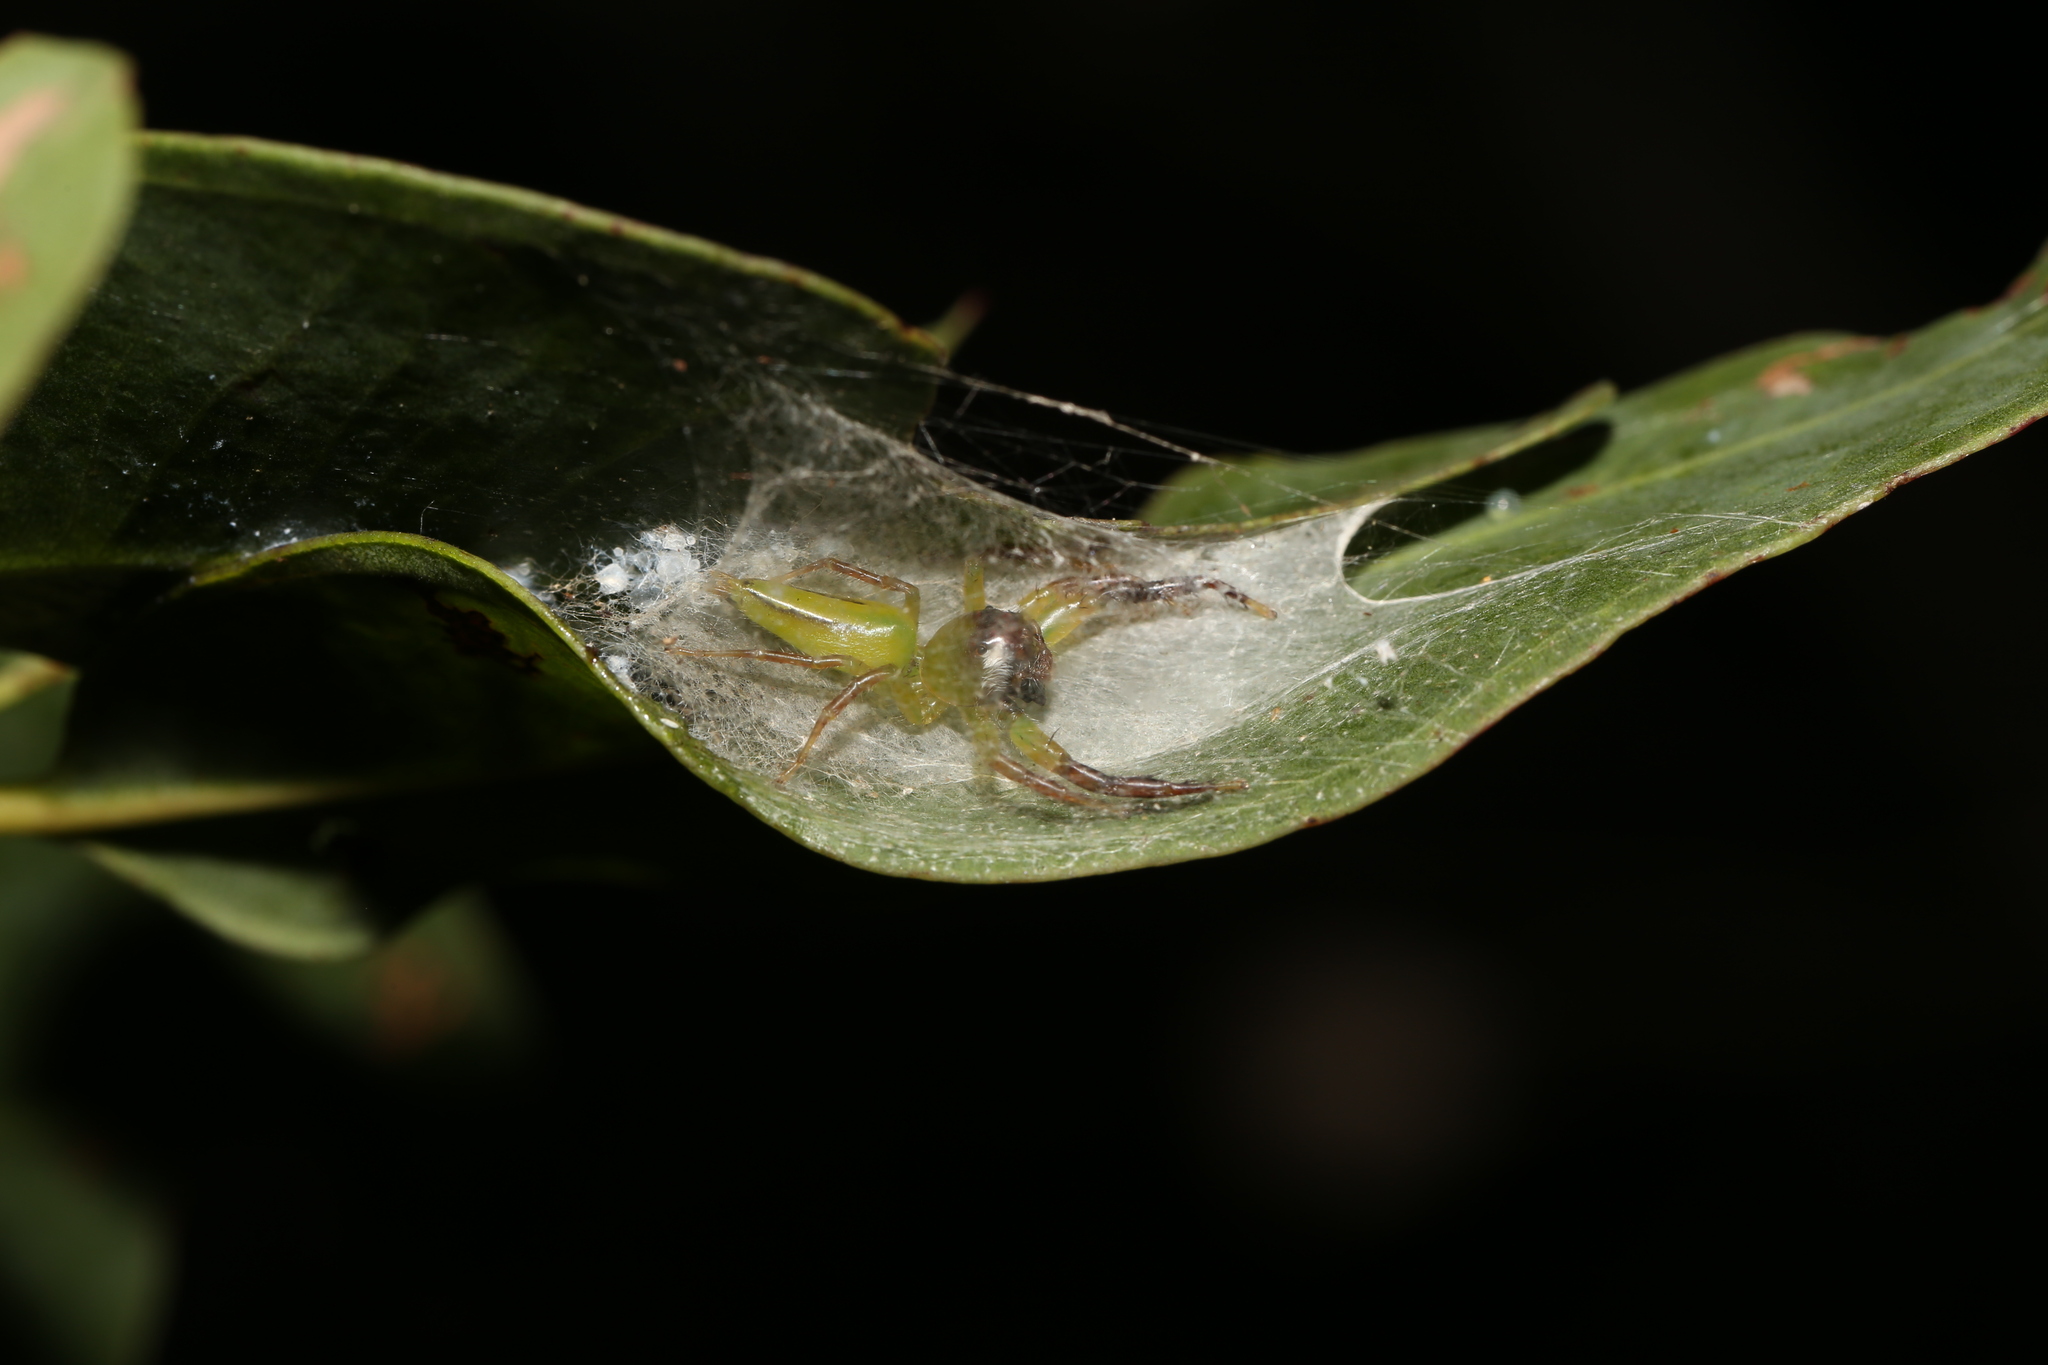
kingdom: Animalia
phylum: Arthropoda
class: Arachnida
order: Araneae
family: Salticidae
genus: Mopsus
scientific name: Mopsus mormon
